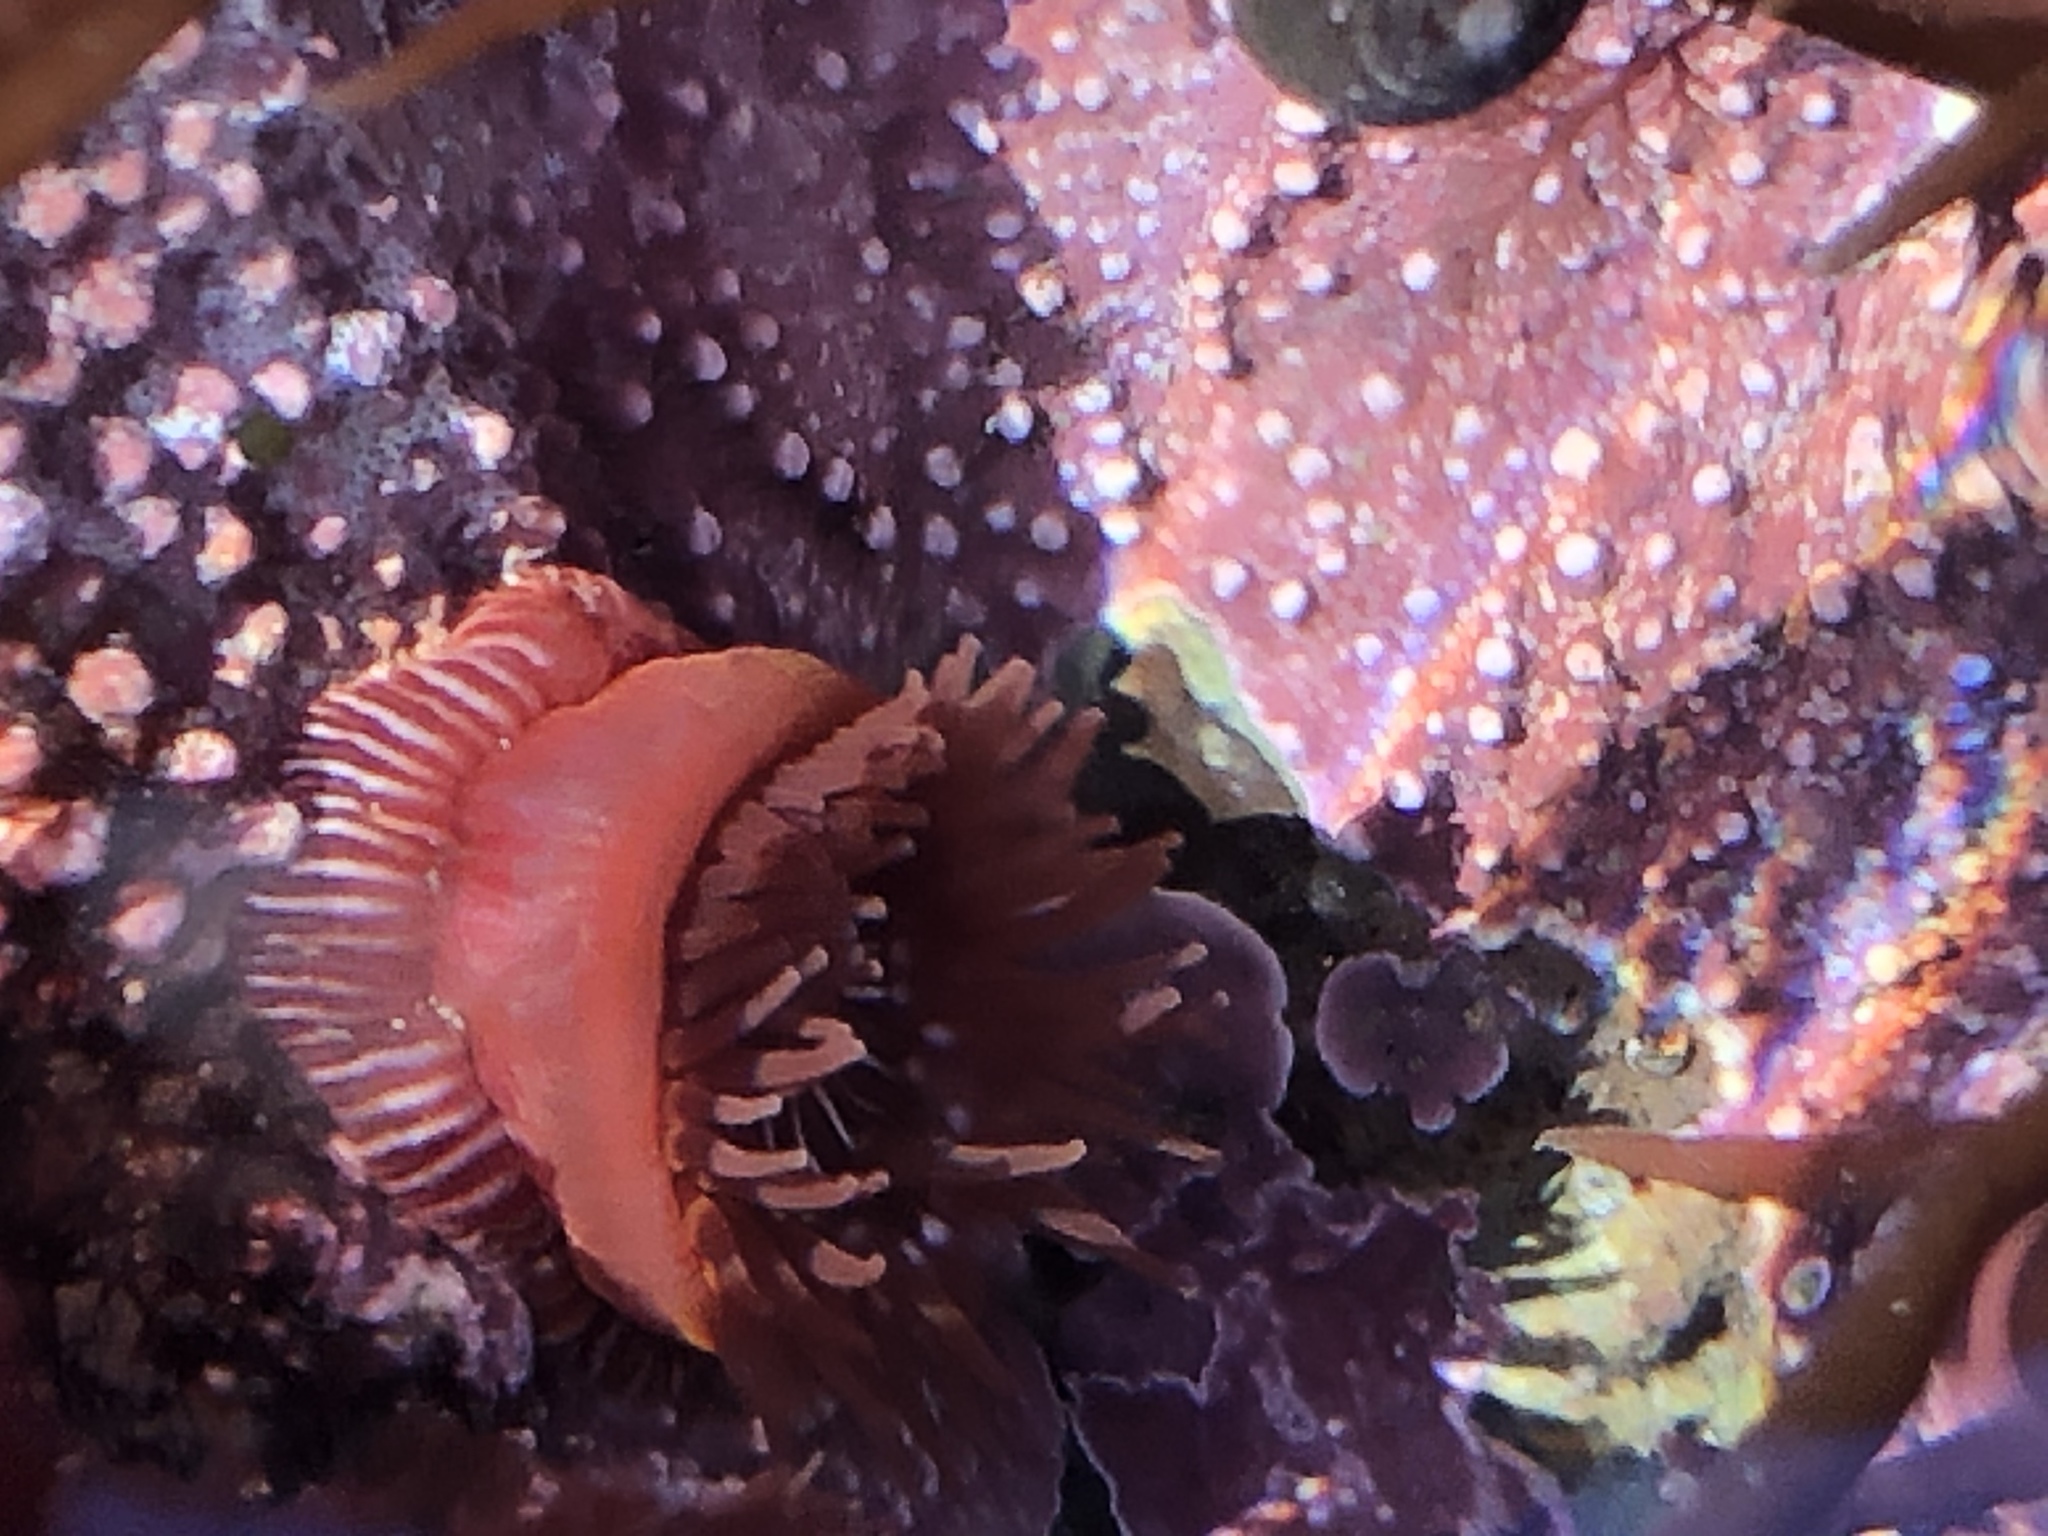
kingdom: Animalia
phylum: Cnidaria
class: Anthozoa
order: Actiniaria
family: Actiniidae
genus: Epiactis
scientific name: Epiactis prolifera
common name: Brooding anemone
